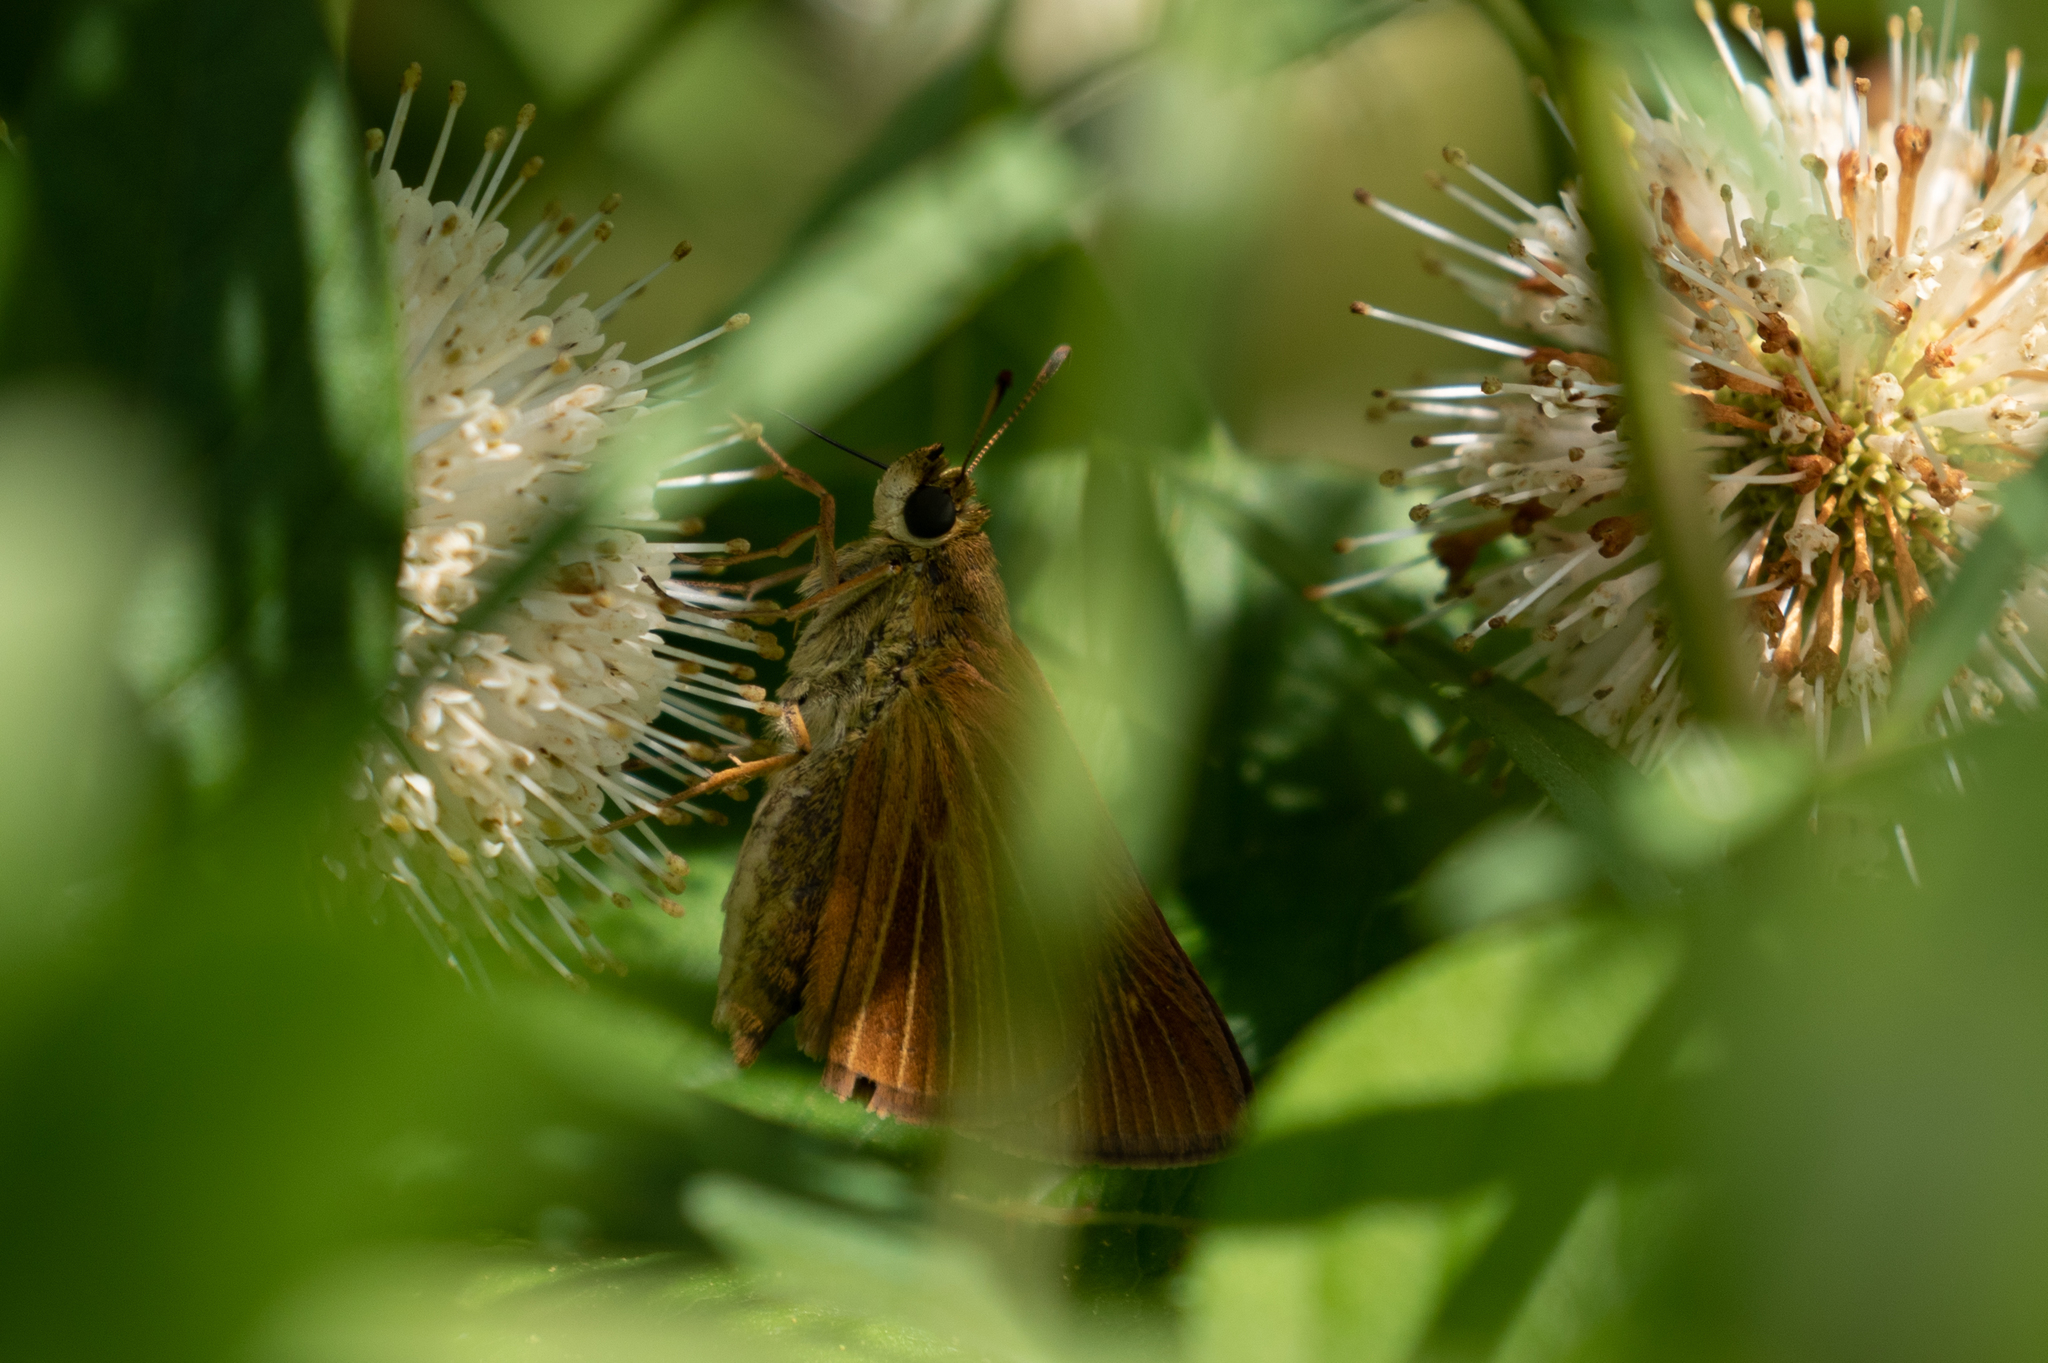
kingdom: Animalia
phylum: Arthropoda
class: Insecta
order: Lepidoptera
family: Hesperiidae
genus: Euphyes
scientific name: Euphyes dion
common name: Dion skipper
